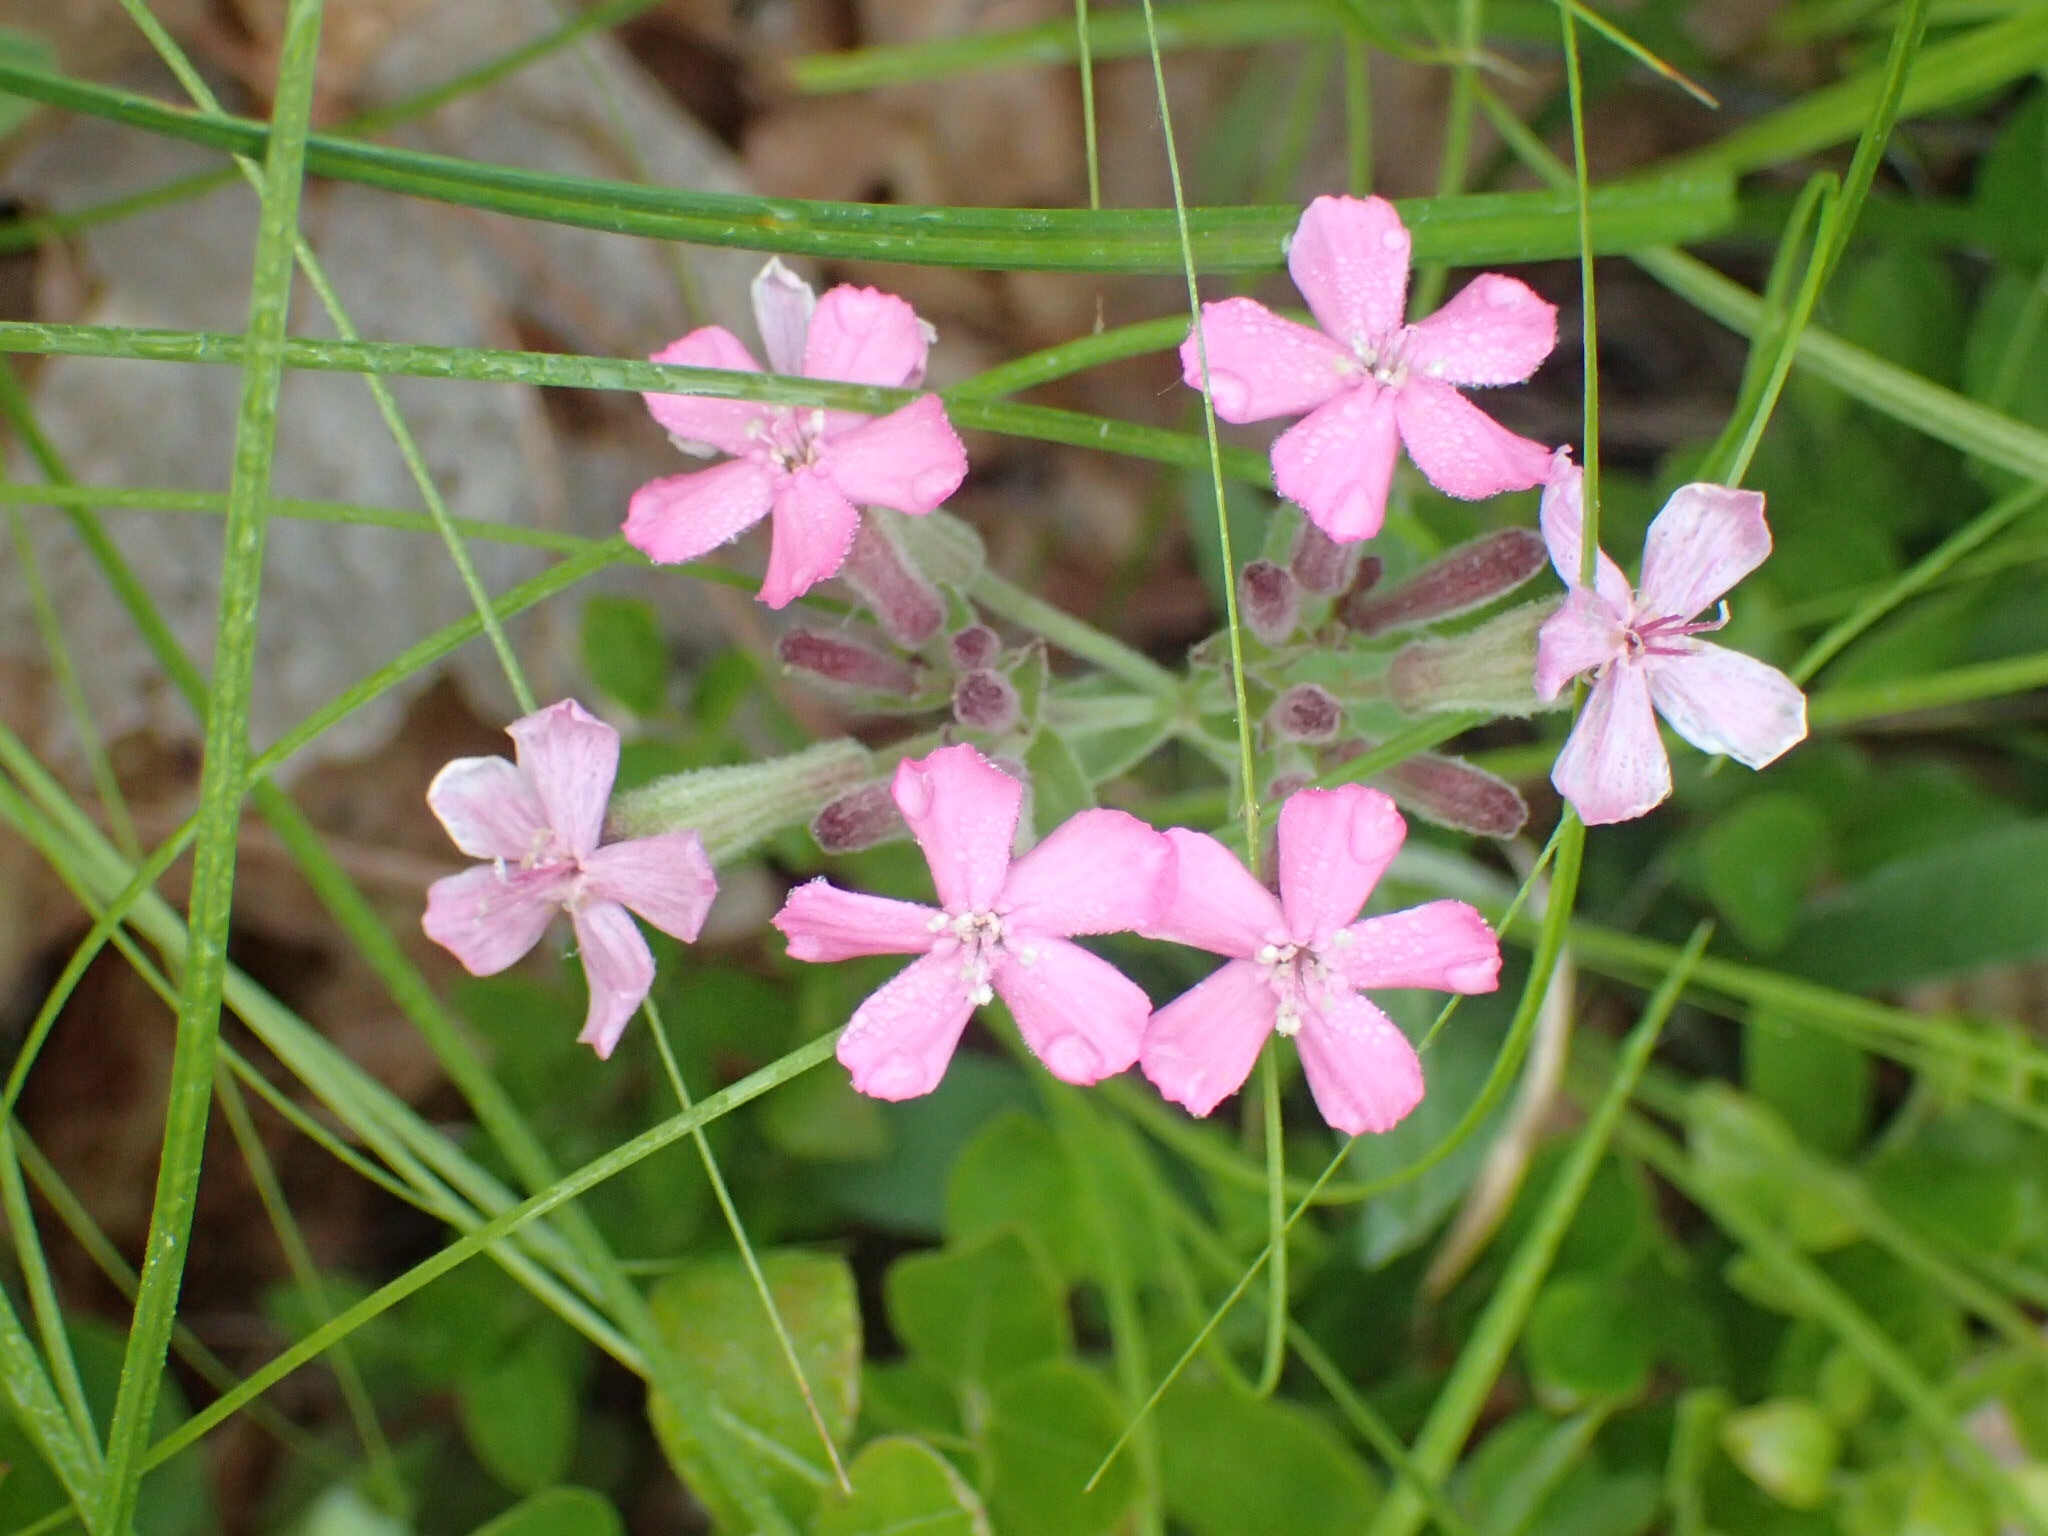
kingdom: Plantae
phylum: Tracheophyta
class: Magnoliopsida
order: Caryophyllales
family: Caryophyllaceae
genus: Silene
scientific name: Silene caroliniana
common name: Sticky catchfly
